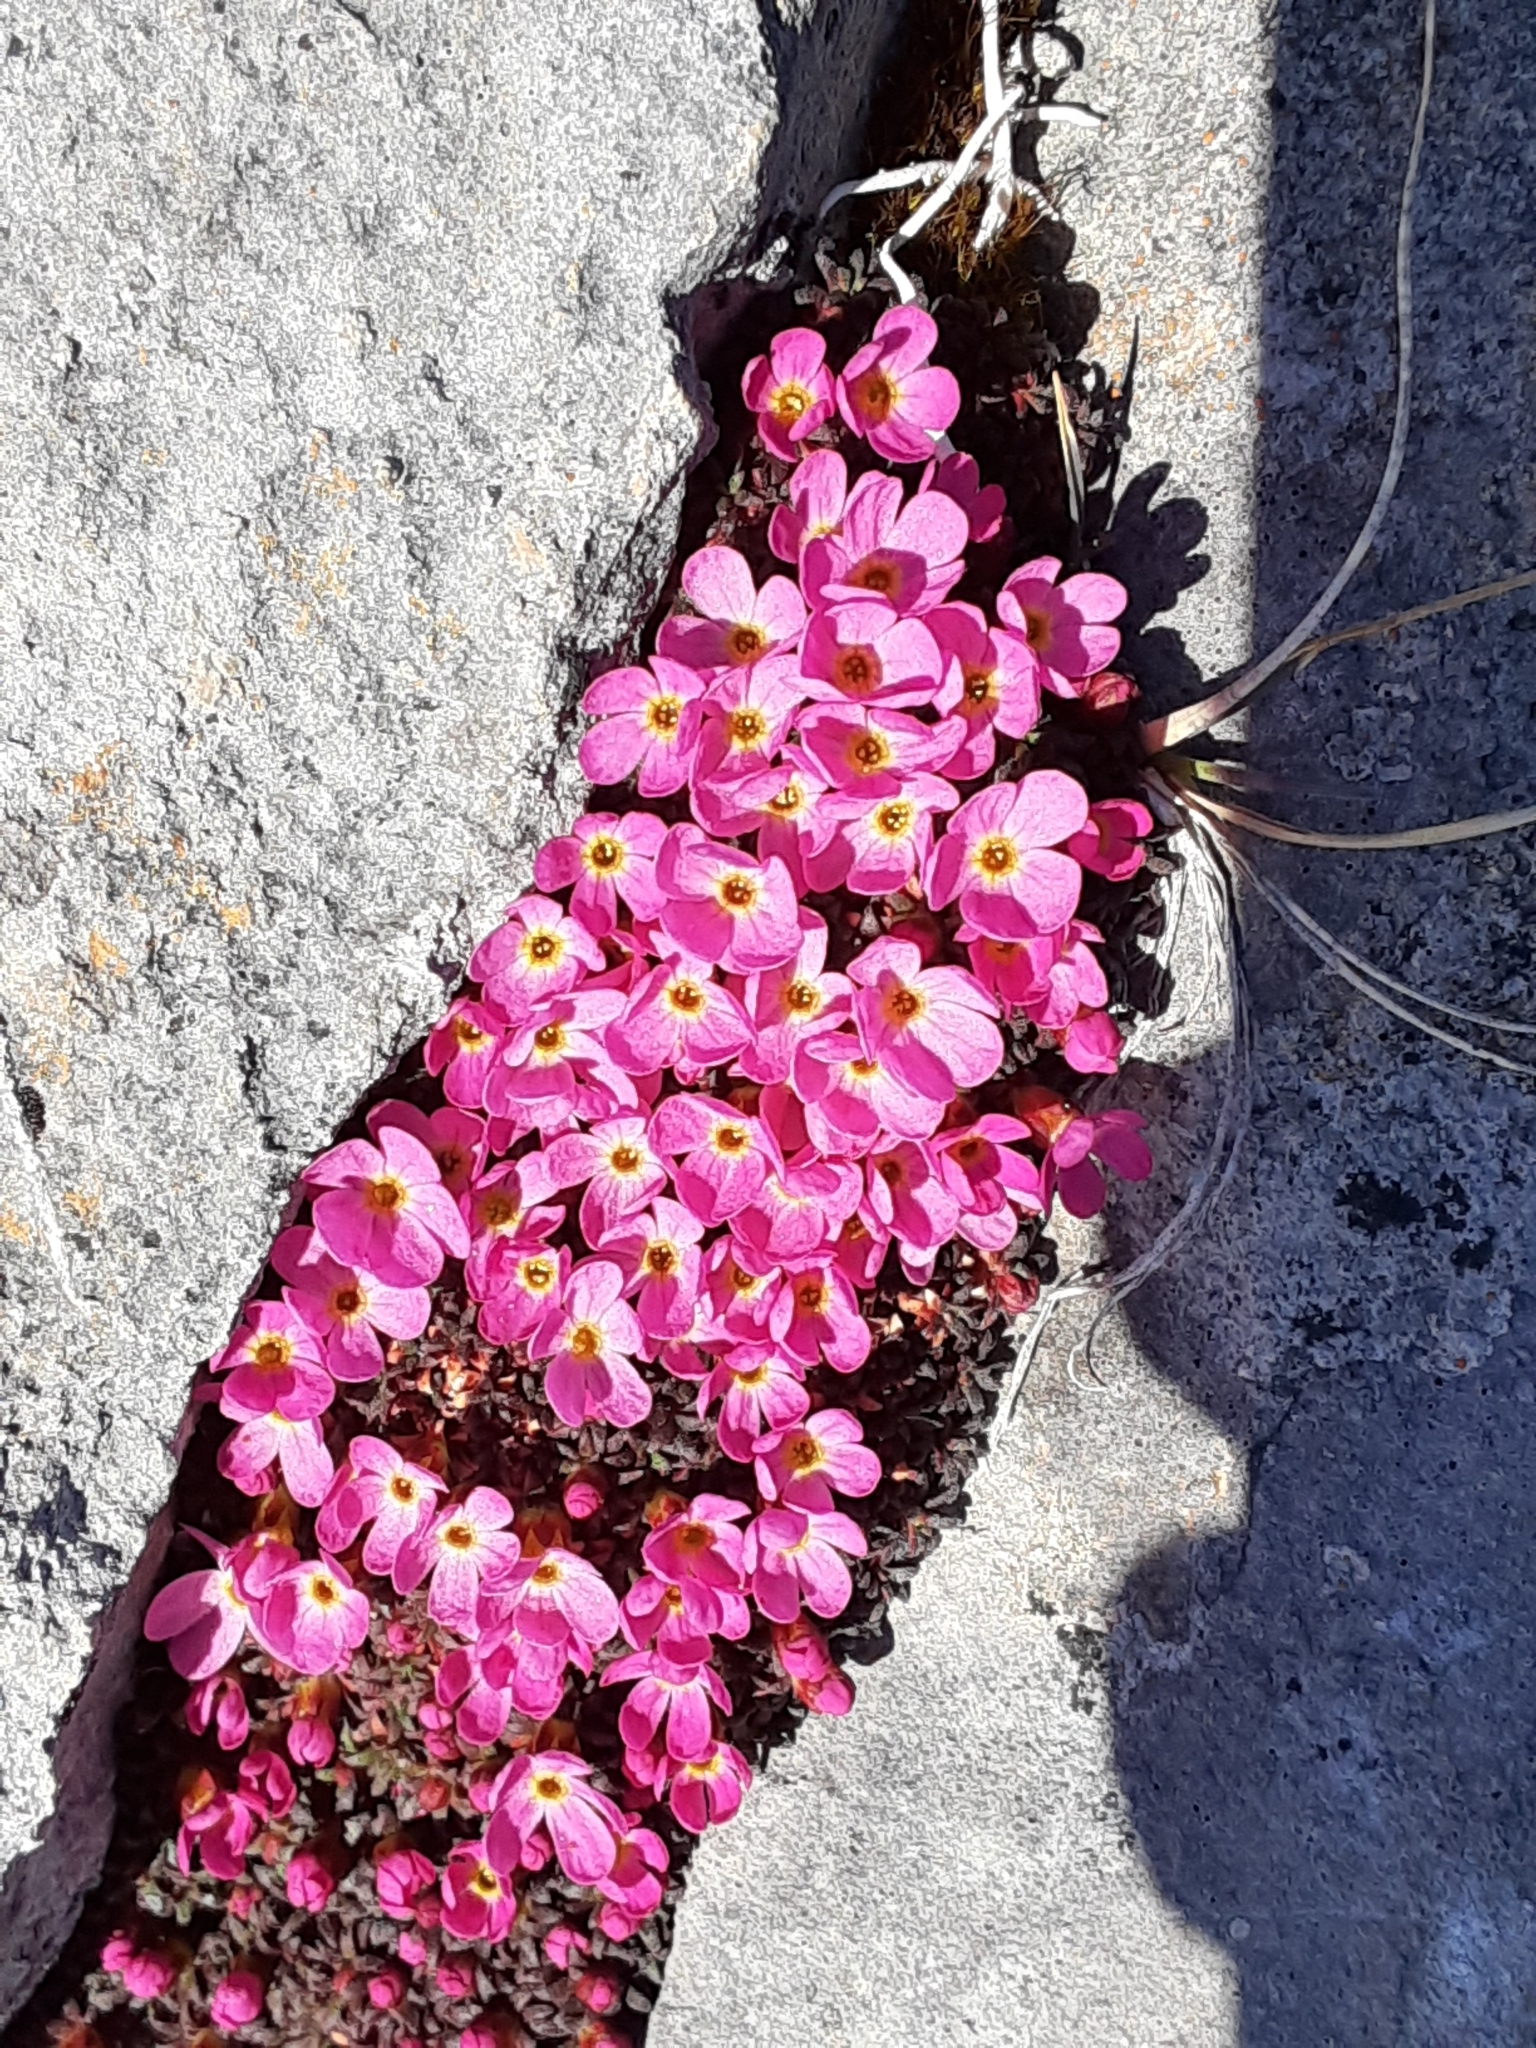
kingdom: Plantae
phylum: Tracheophyta
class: Magnoliopsida
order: Ericales
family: Primulaceae
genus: Androsace
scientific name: Androsace ochotensis
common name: Alaska dwarf-primrose
